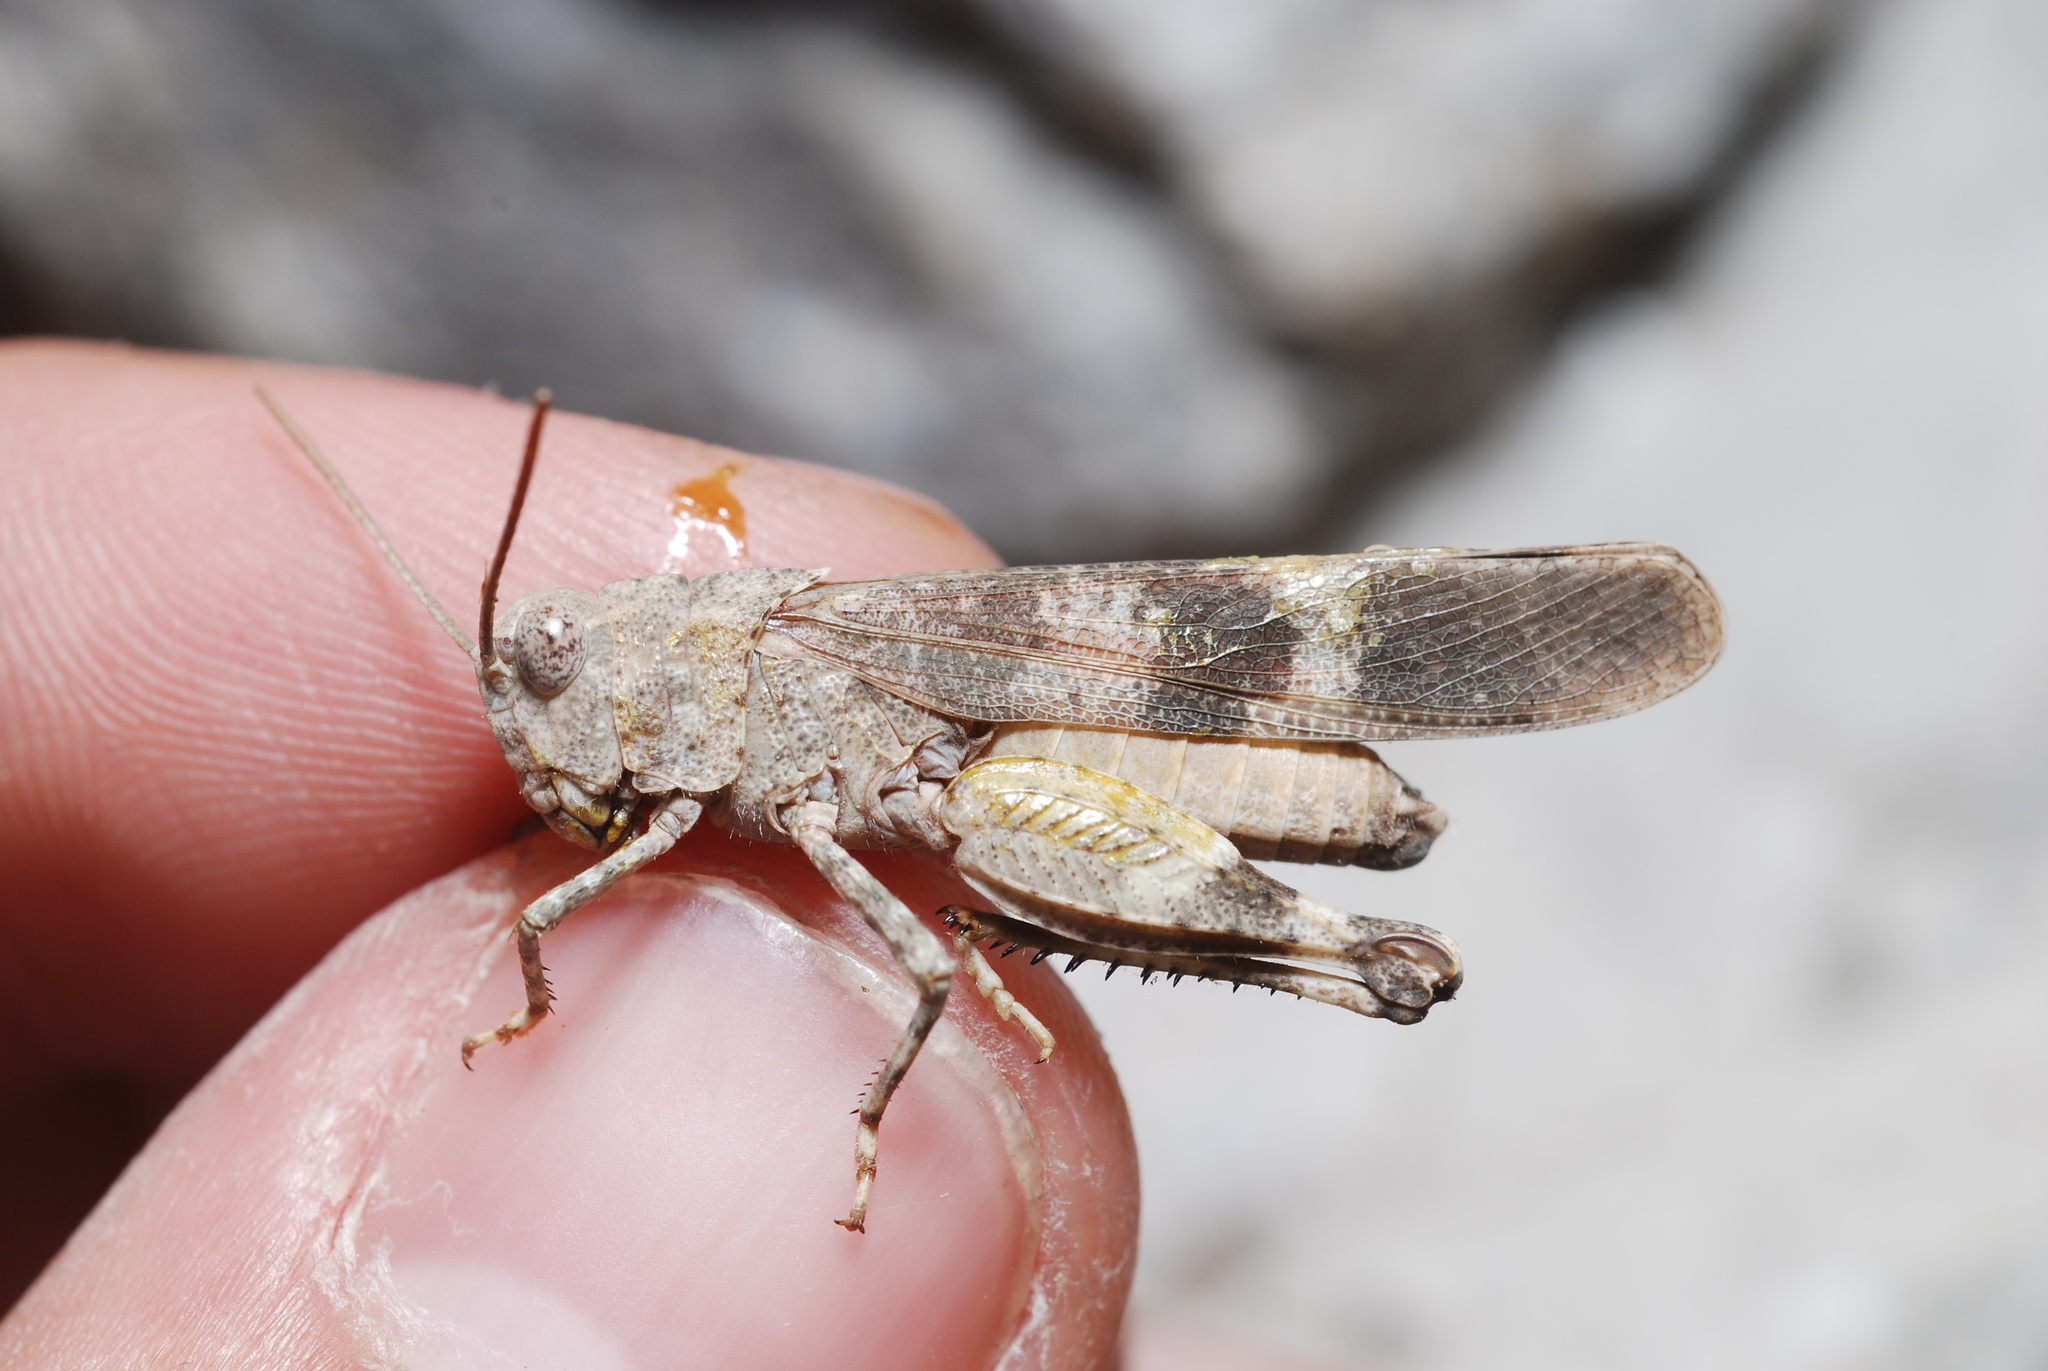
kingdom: Animalia
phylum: Arthropoda
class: Insecta
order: Orthoptera
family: Acrididae
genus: Oedipoda
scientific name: Oedipoda germanica
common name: Red band-winged grasshopper
